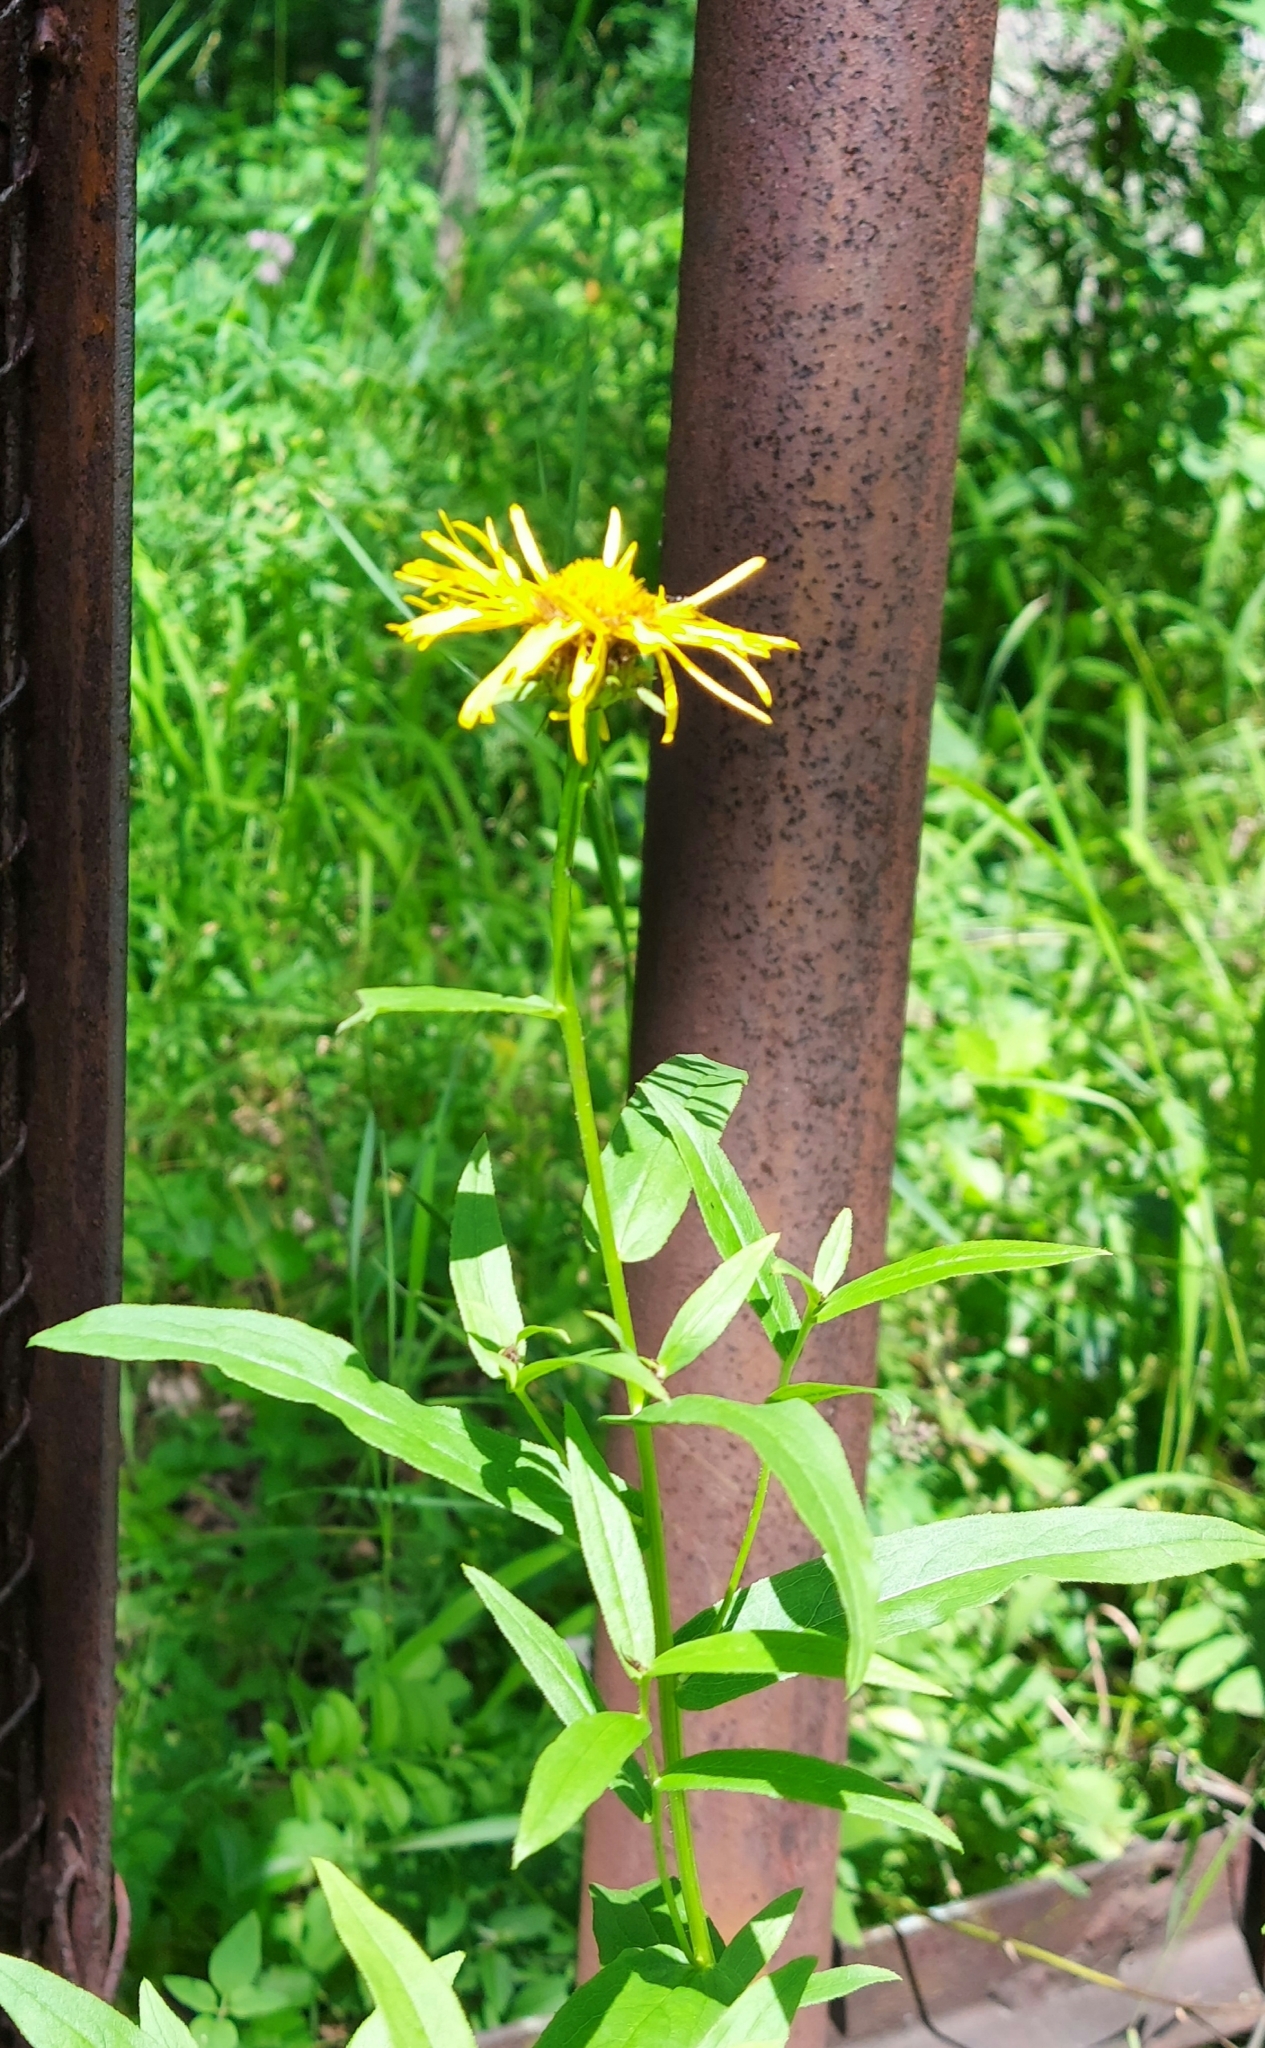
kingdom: Plantae
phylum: Tracheophyta
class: Magnoliopsida
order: Asterales
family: Asteraceae
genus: Pentanema
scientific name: Pentanema salicinum
